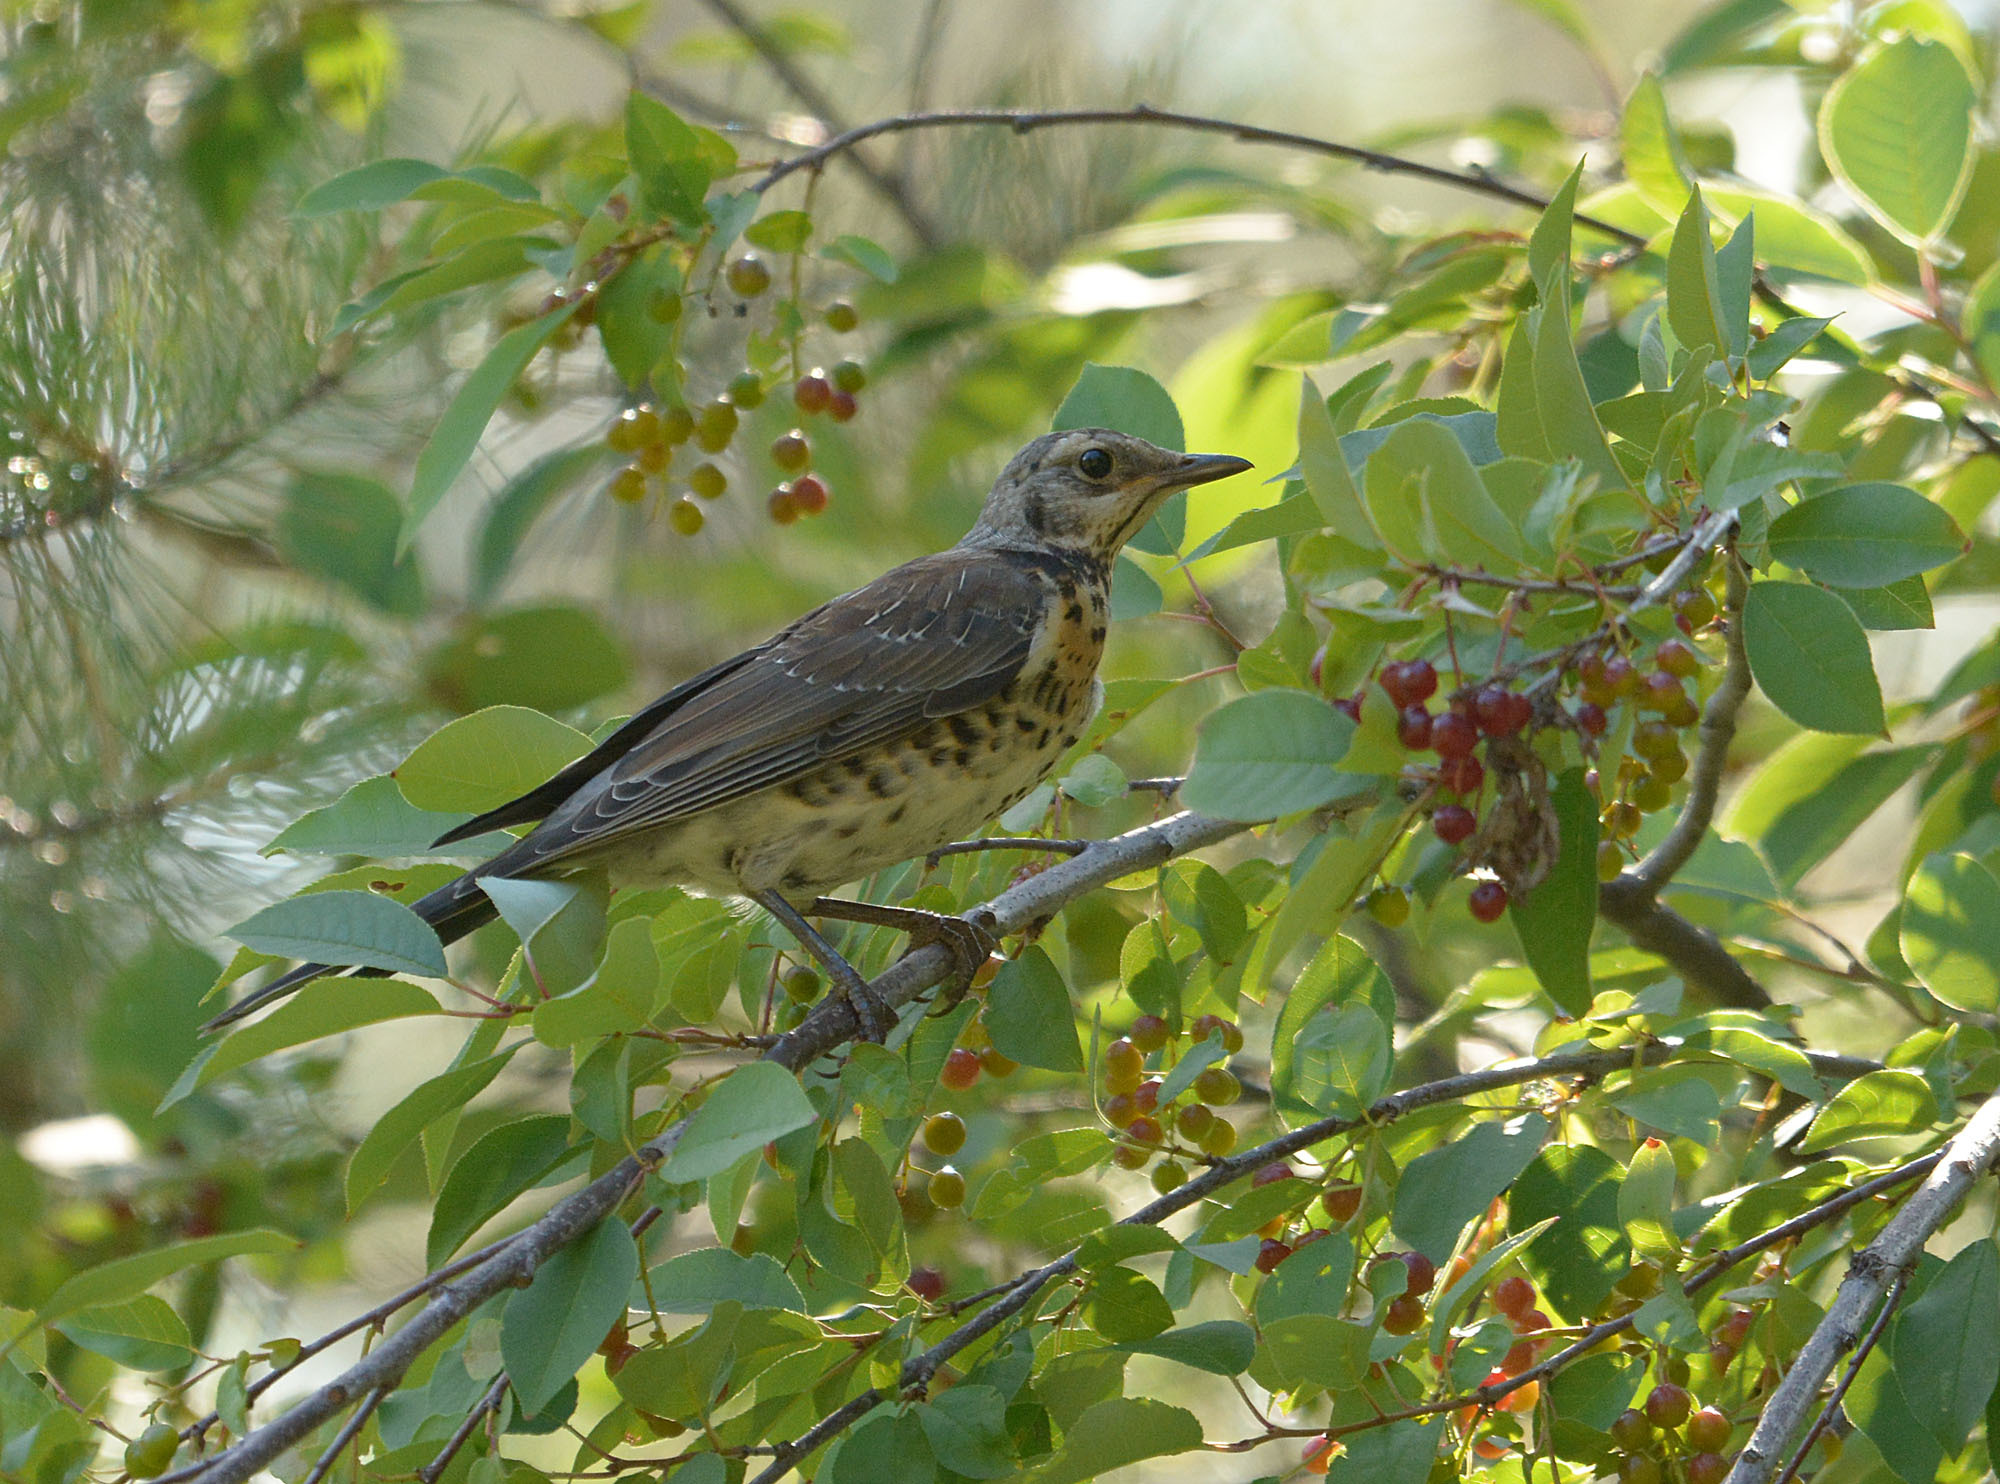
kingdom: Animalia
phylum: Chordata
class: Aves
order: Passeriformes
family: Turdidae
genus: Turdus
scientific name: Turdus pilaris
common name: Fieldfare
